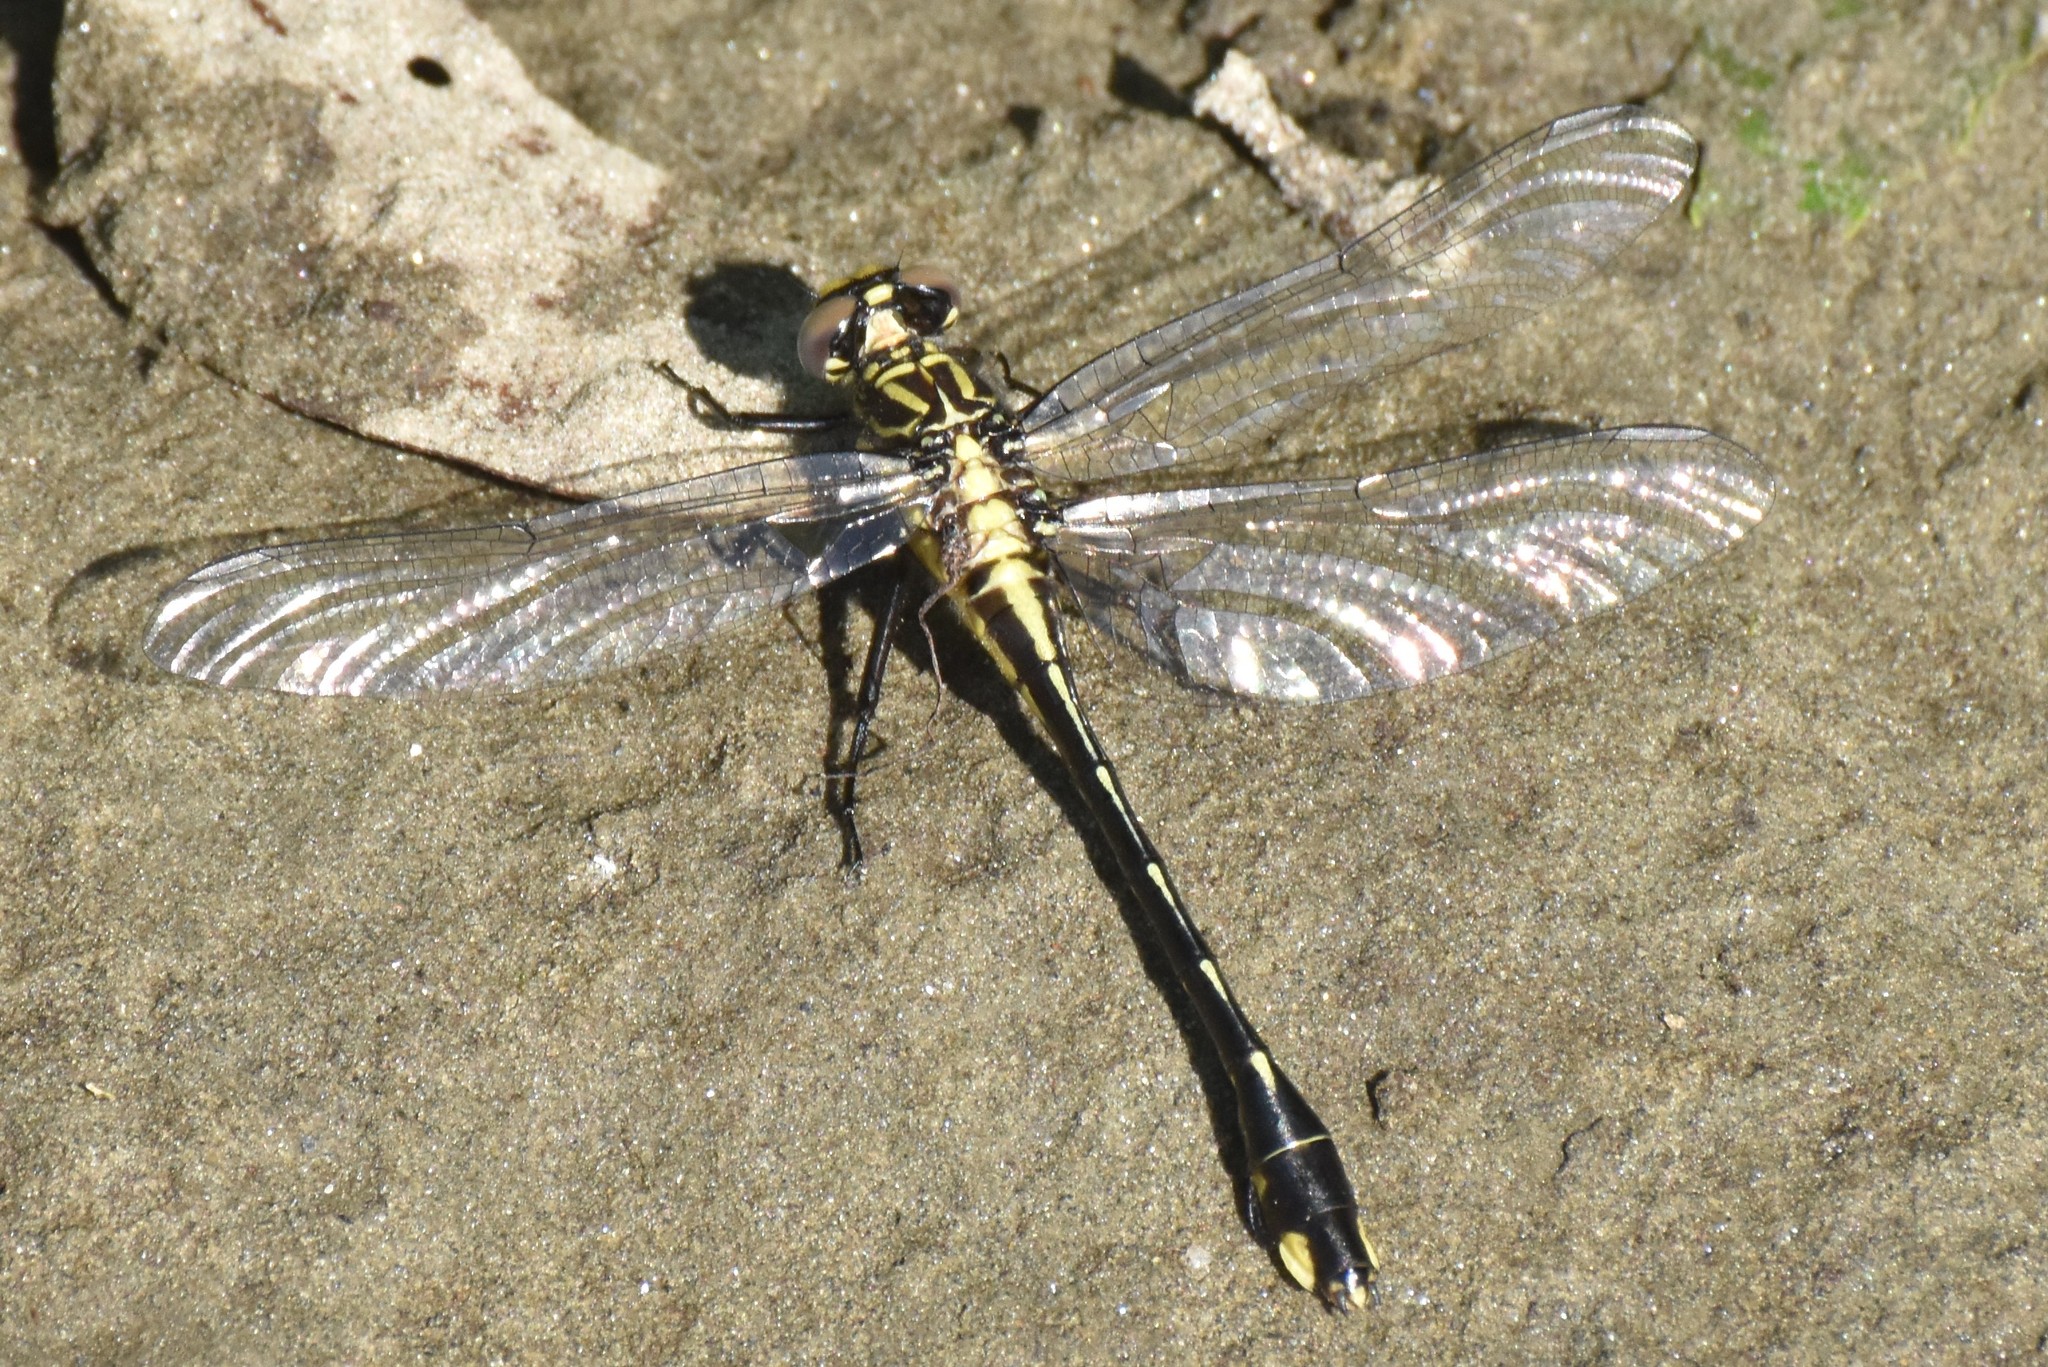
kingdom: Animalia
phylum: Arthropoda
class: Insecta
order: Odonata
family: Gomphidae
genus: Gomphurus
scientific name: Gomphurus vastus
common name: Cobra clubtail
